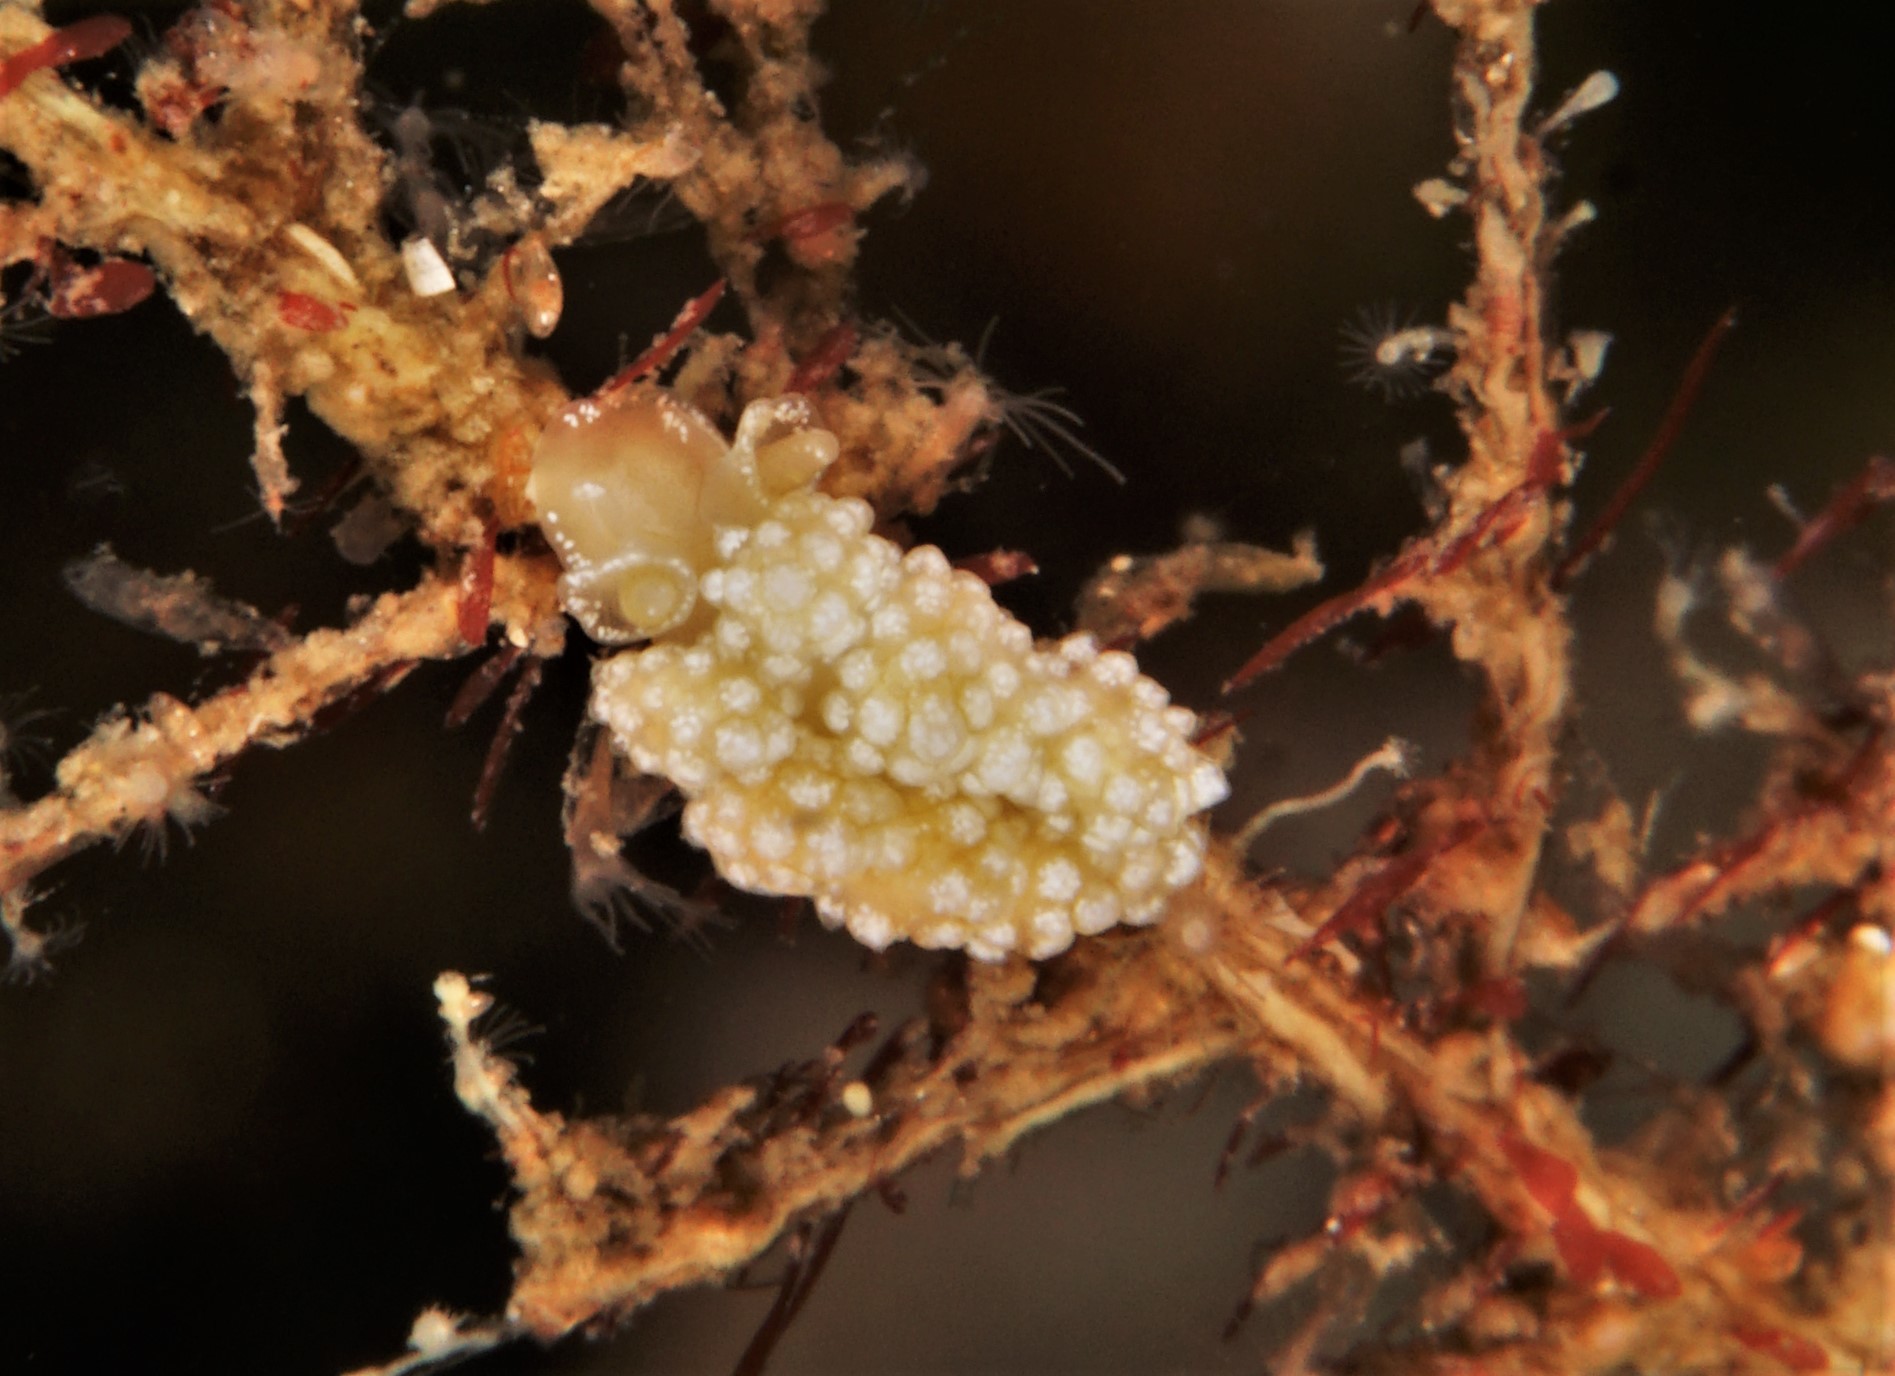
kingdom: Animalia
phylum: Mollusca
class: Gastropoda
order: Nudibranchia
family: Dotidae
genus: Doto
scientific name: Doto fragilis
